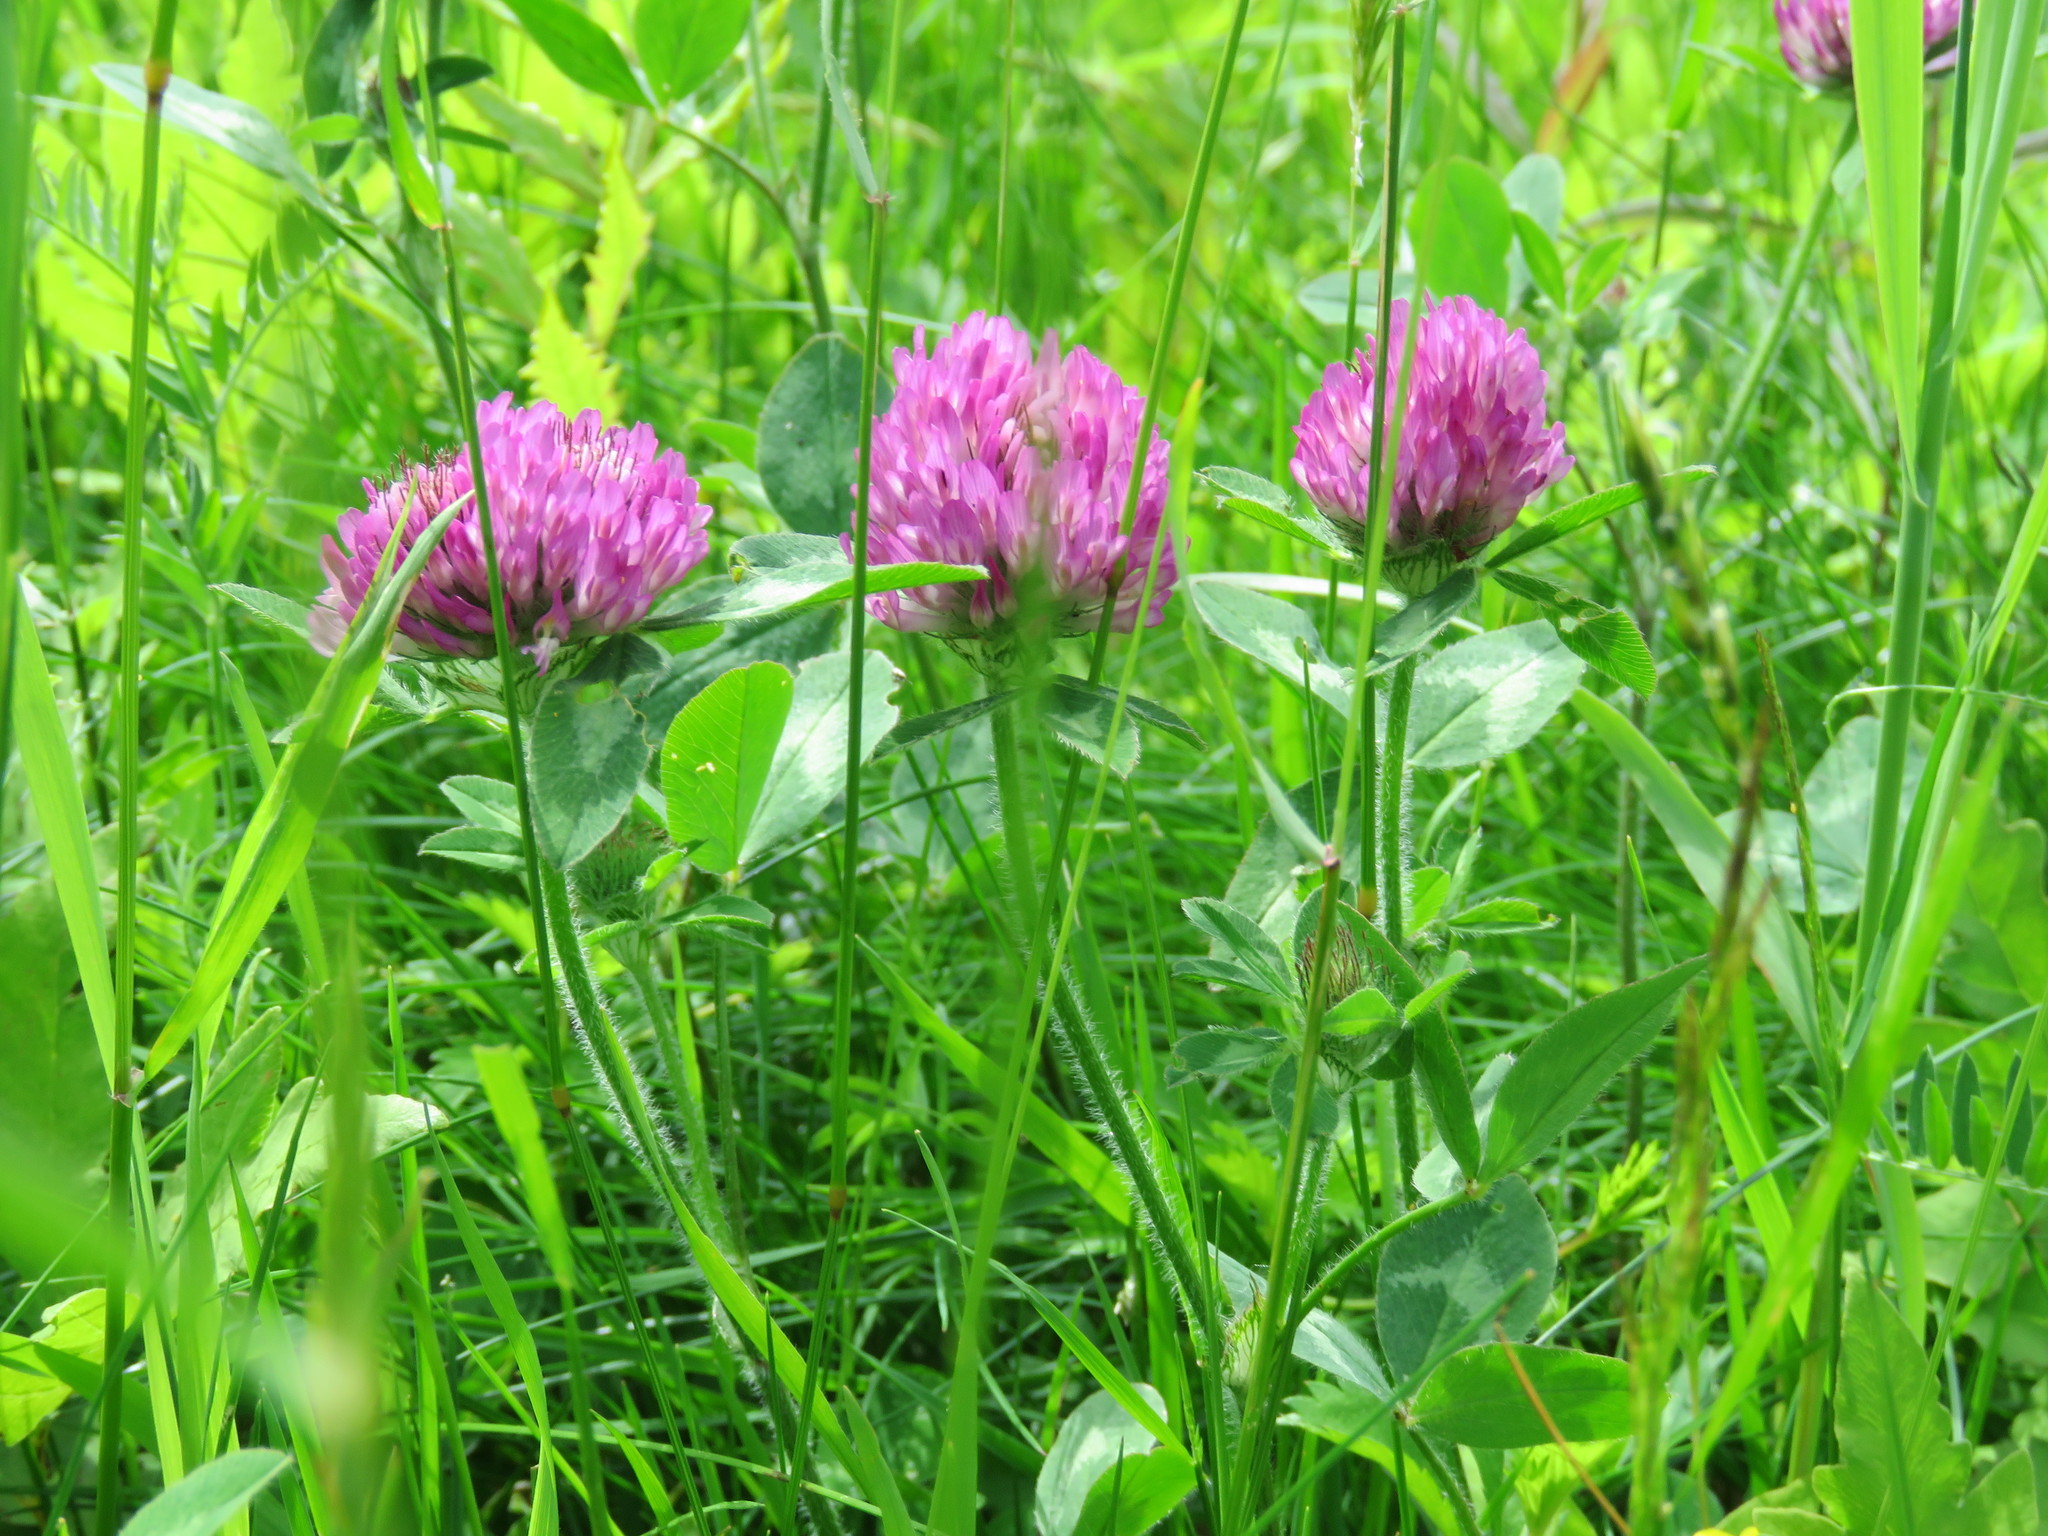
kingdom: Plantae
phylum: Tracheophyta
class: Magnoliopsida
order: Fabales
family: Fabaceae
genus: Trifolium
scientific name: Trifolium pratense
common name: Red clover
